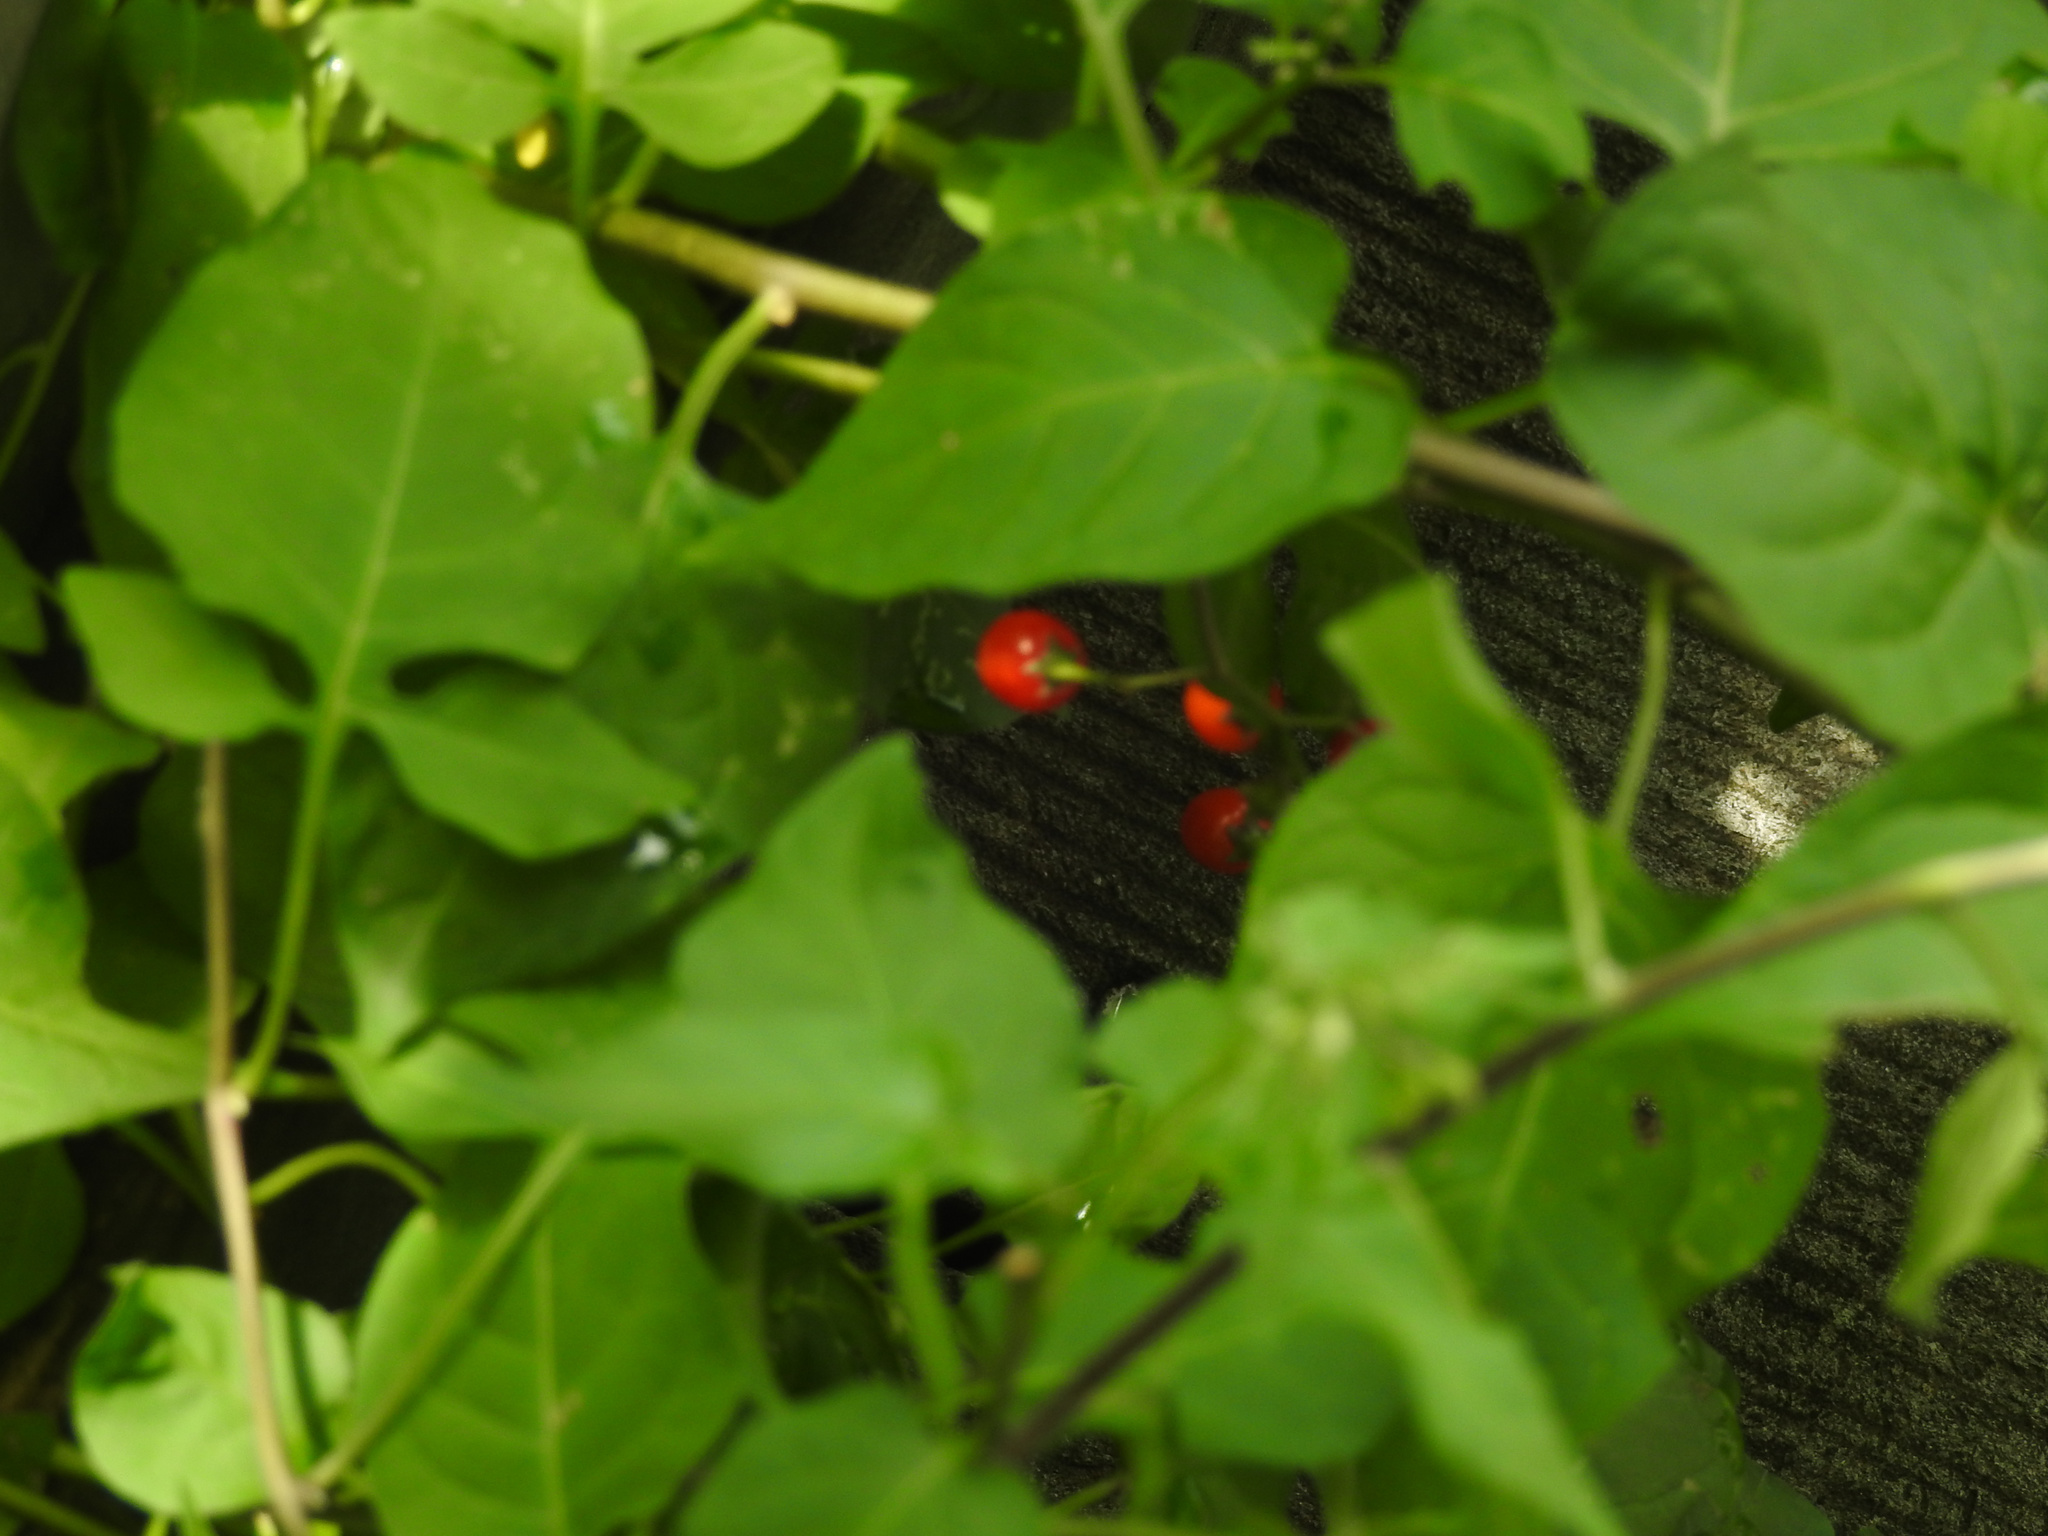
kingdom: Plantae
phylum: Tracheophyta
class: Magnoliopsida
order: Solanales
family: Solanaceae
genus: Solanum
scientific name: Solanum dulcamara
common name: Climbing nightshade
